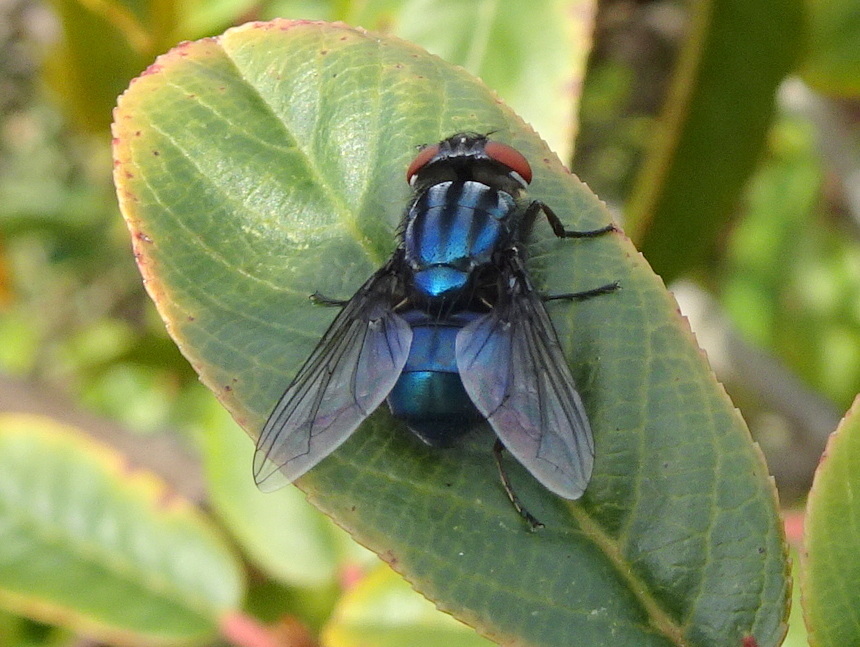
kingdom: Animalia
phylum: Arthropoda
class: Insecta
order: Diptera
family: Calliphoridae
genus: Compsomyiops
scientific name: Compsomyiops callipes
